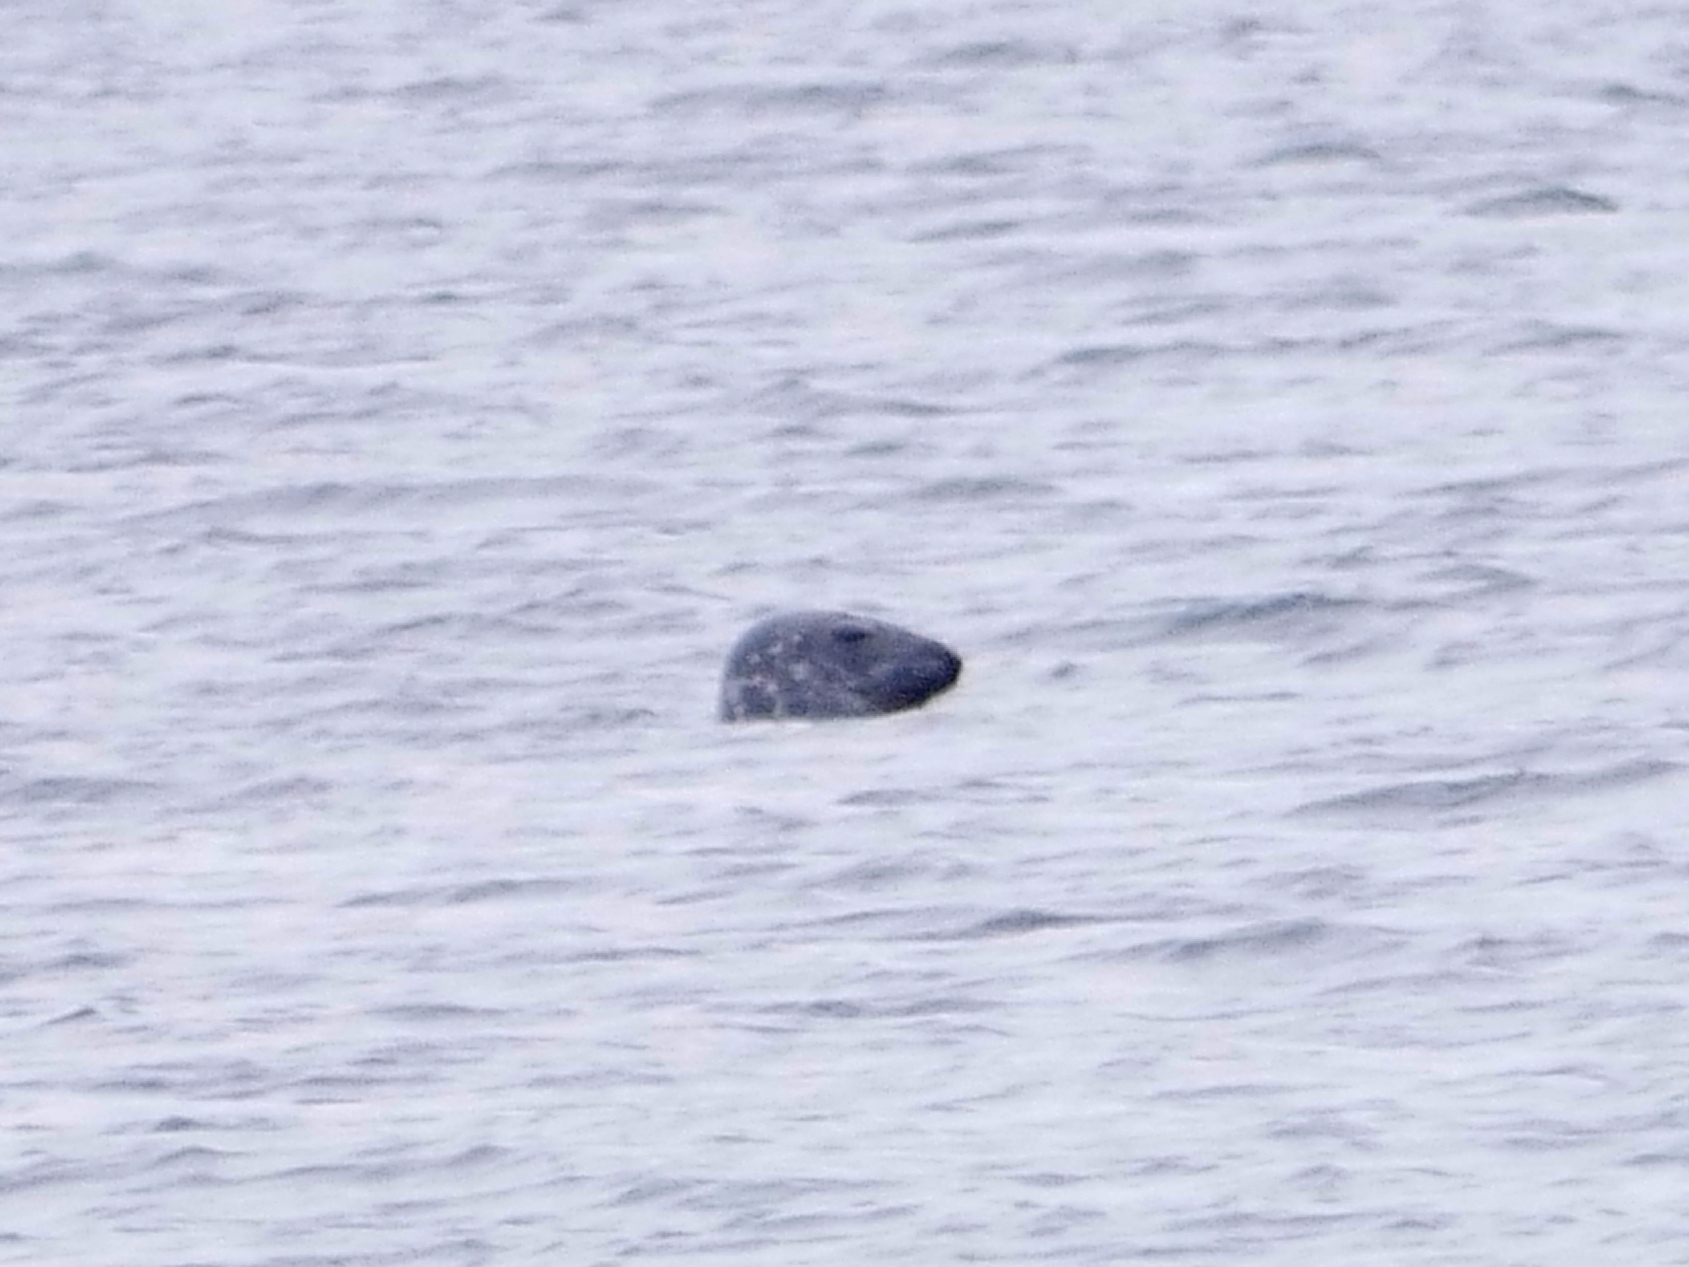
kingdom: Animalia
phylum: Chordata
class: Mammalia
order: Carnivora
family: Phocidae
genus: Halichoerus
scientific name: Halichoerus grypus
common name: Grey seal
